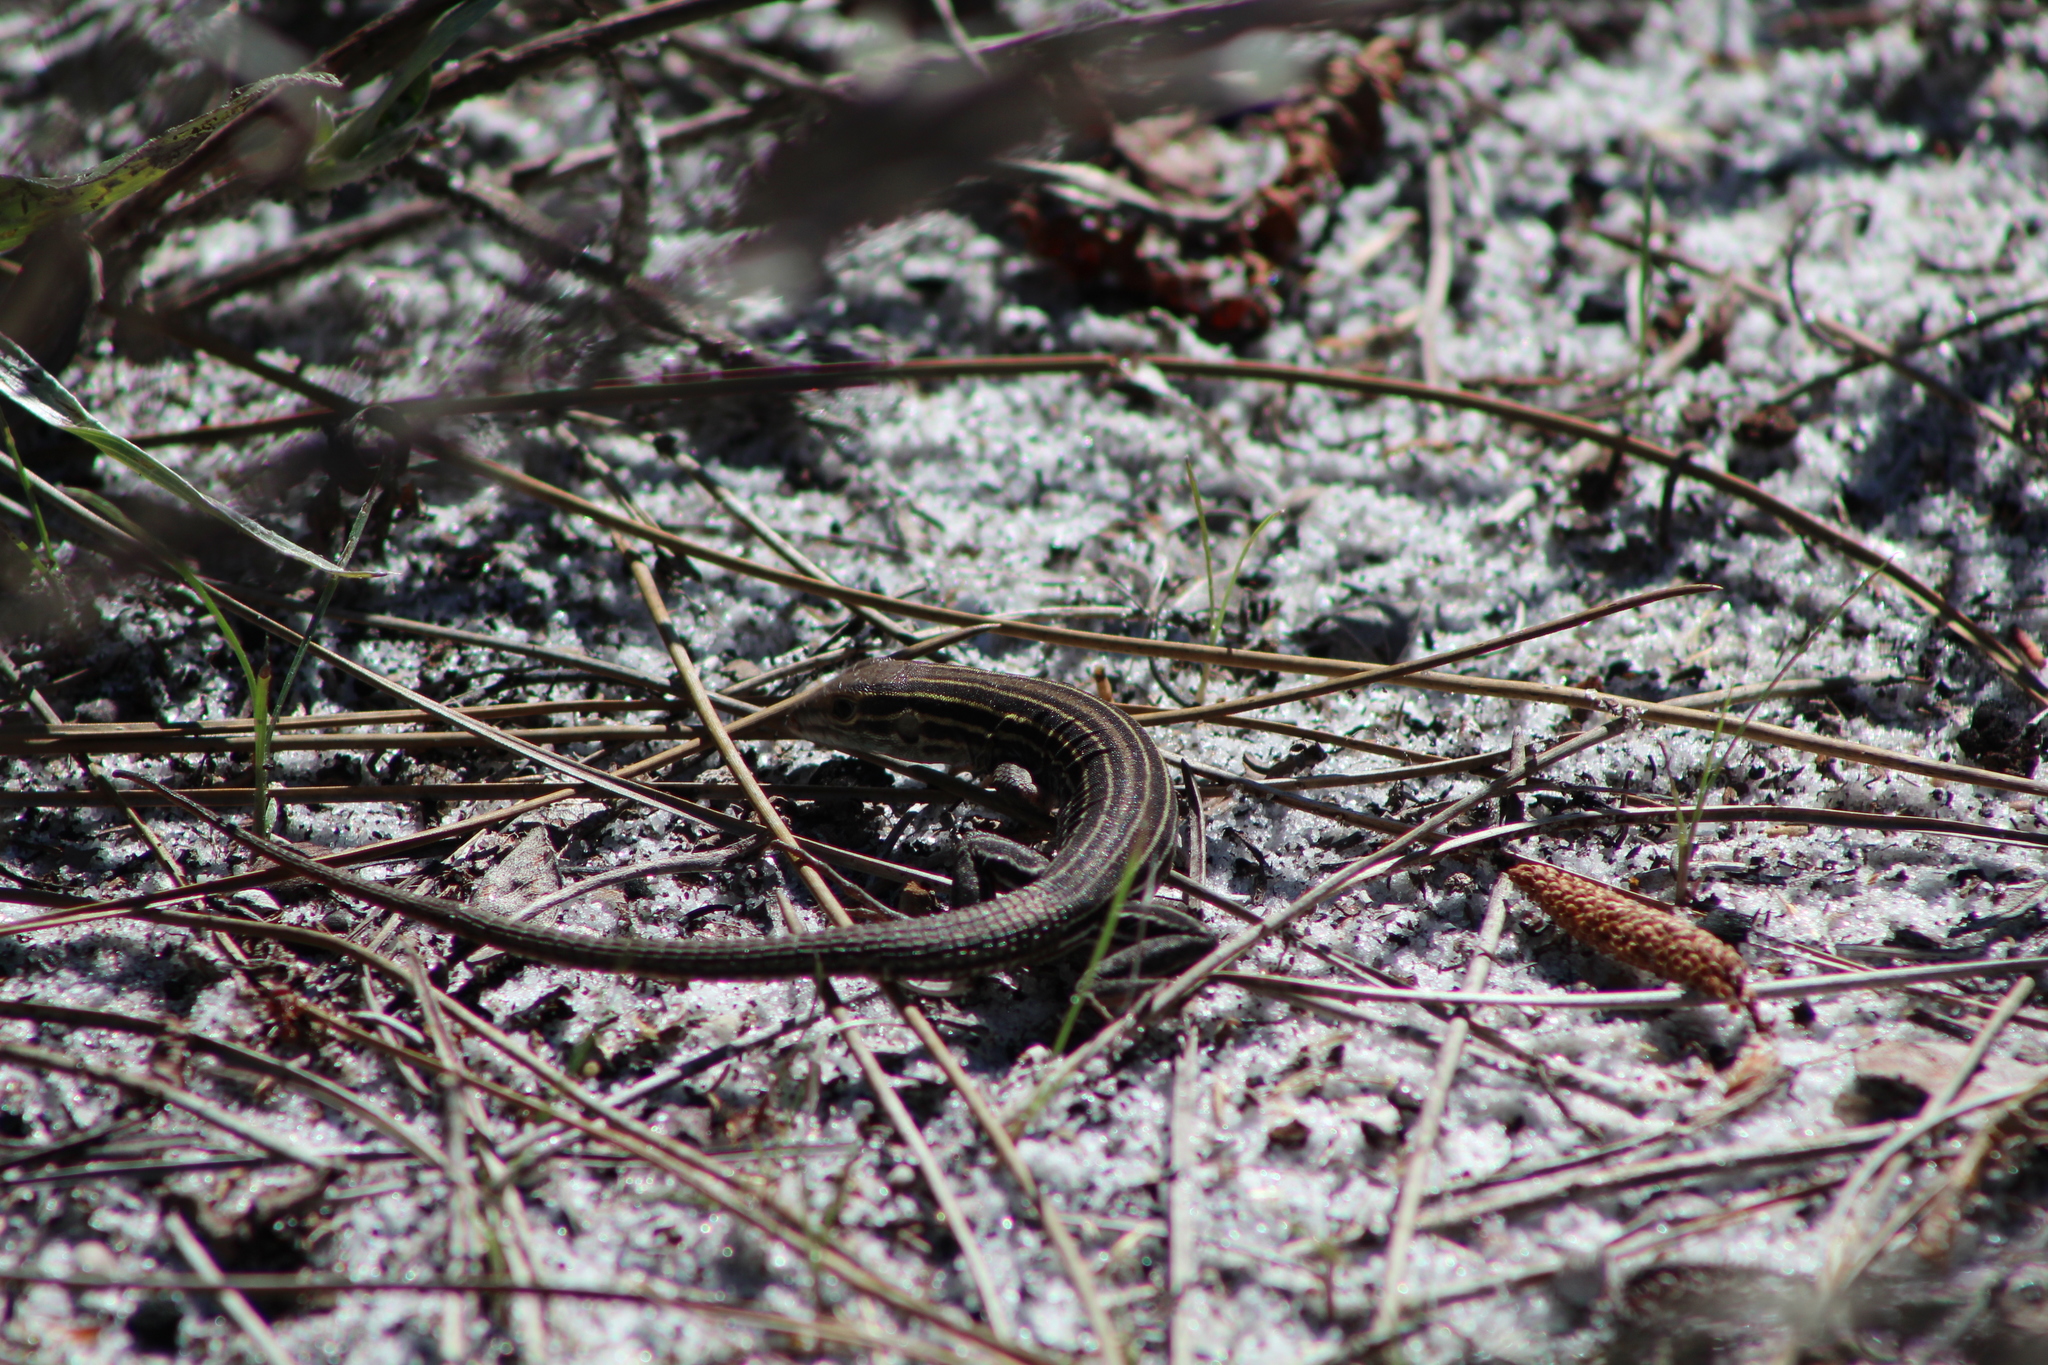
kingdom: Animalia
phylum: Chordata
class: Squamata
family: Teiidae
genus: Aspidoscelis
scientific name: Aspidoscelis sexlineatus
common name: Six-lined racerunner
